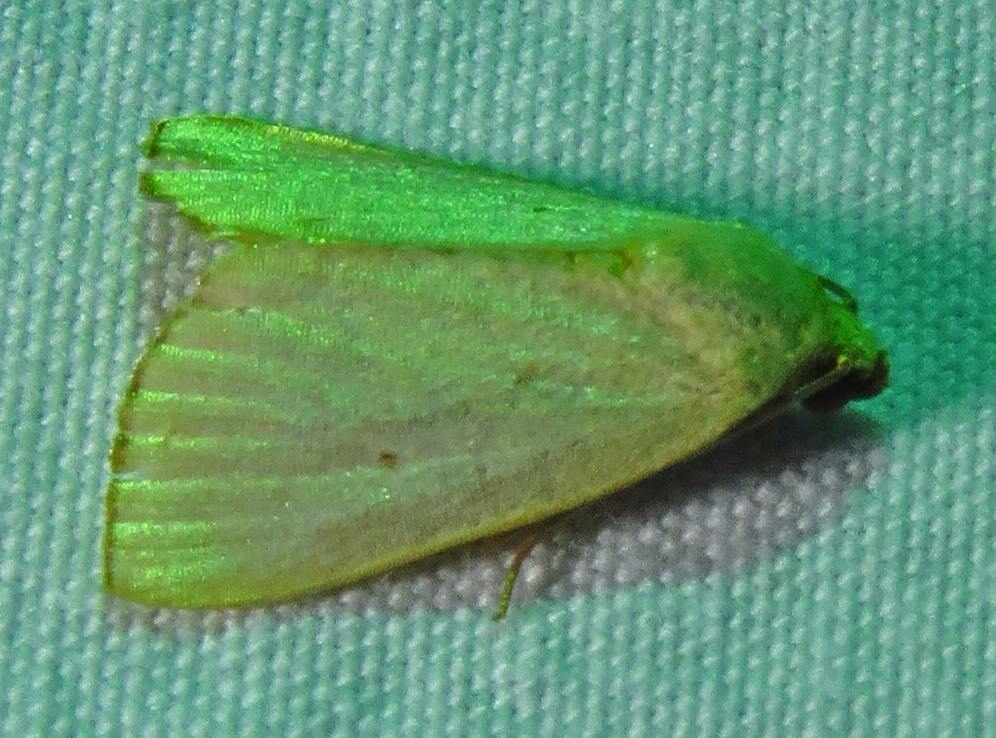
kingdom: Animalia
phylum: Arthropoda
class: Insecta
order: Lepidoptera
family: Noctuidae
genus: Marimatha
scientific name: Marimatha nigrofimbria
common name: Black-bordered lemon moth
